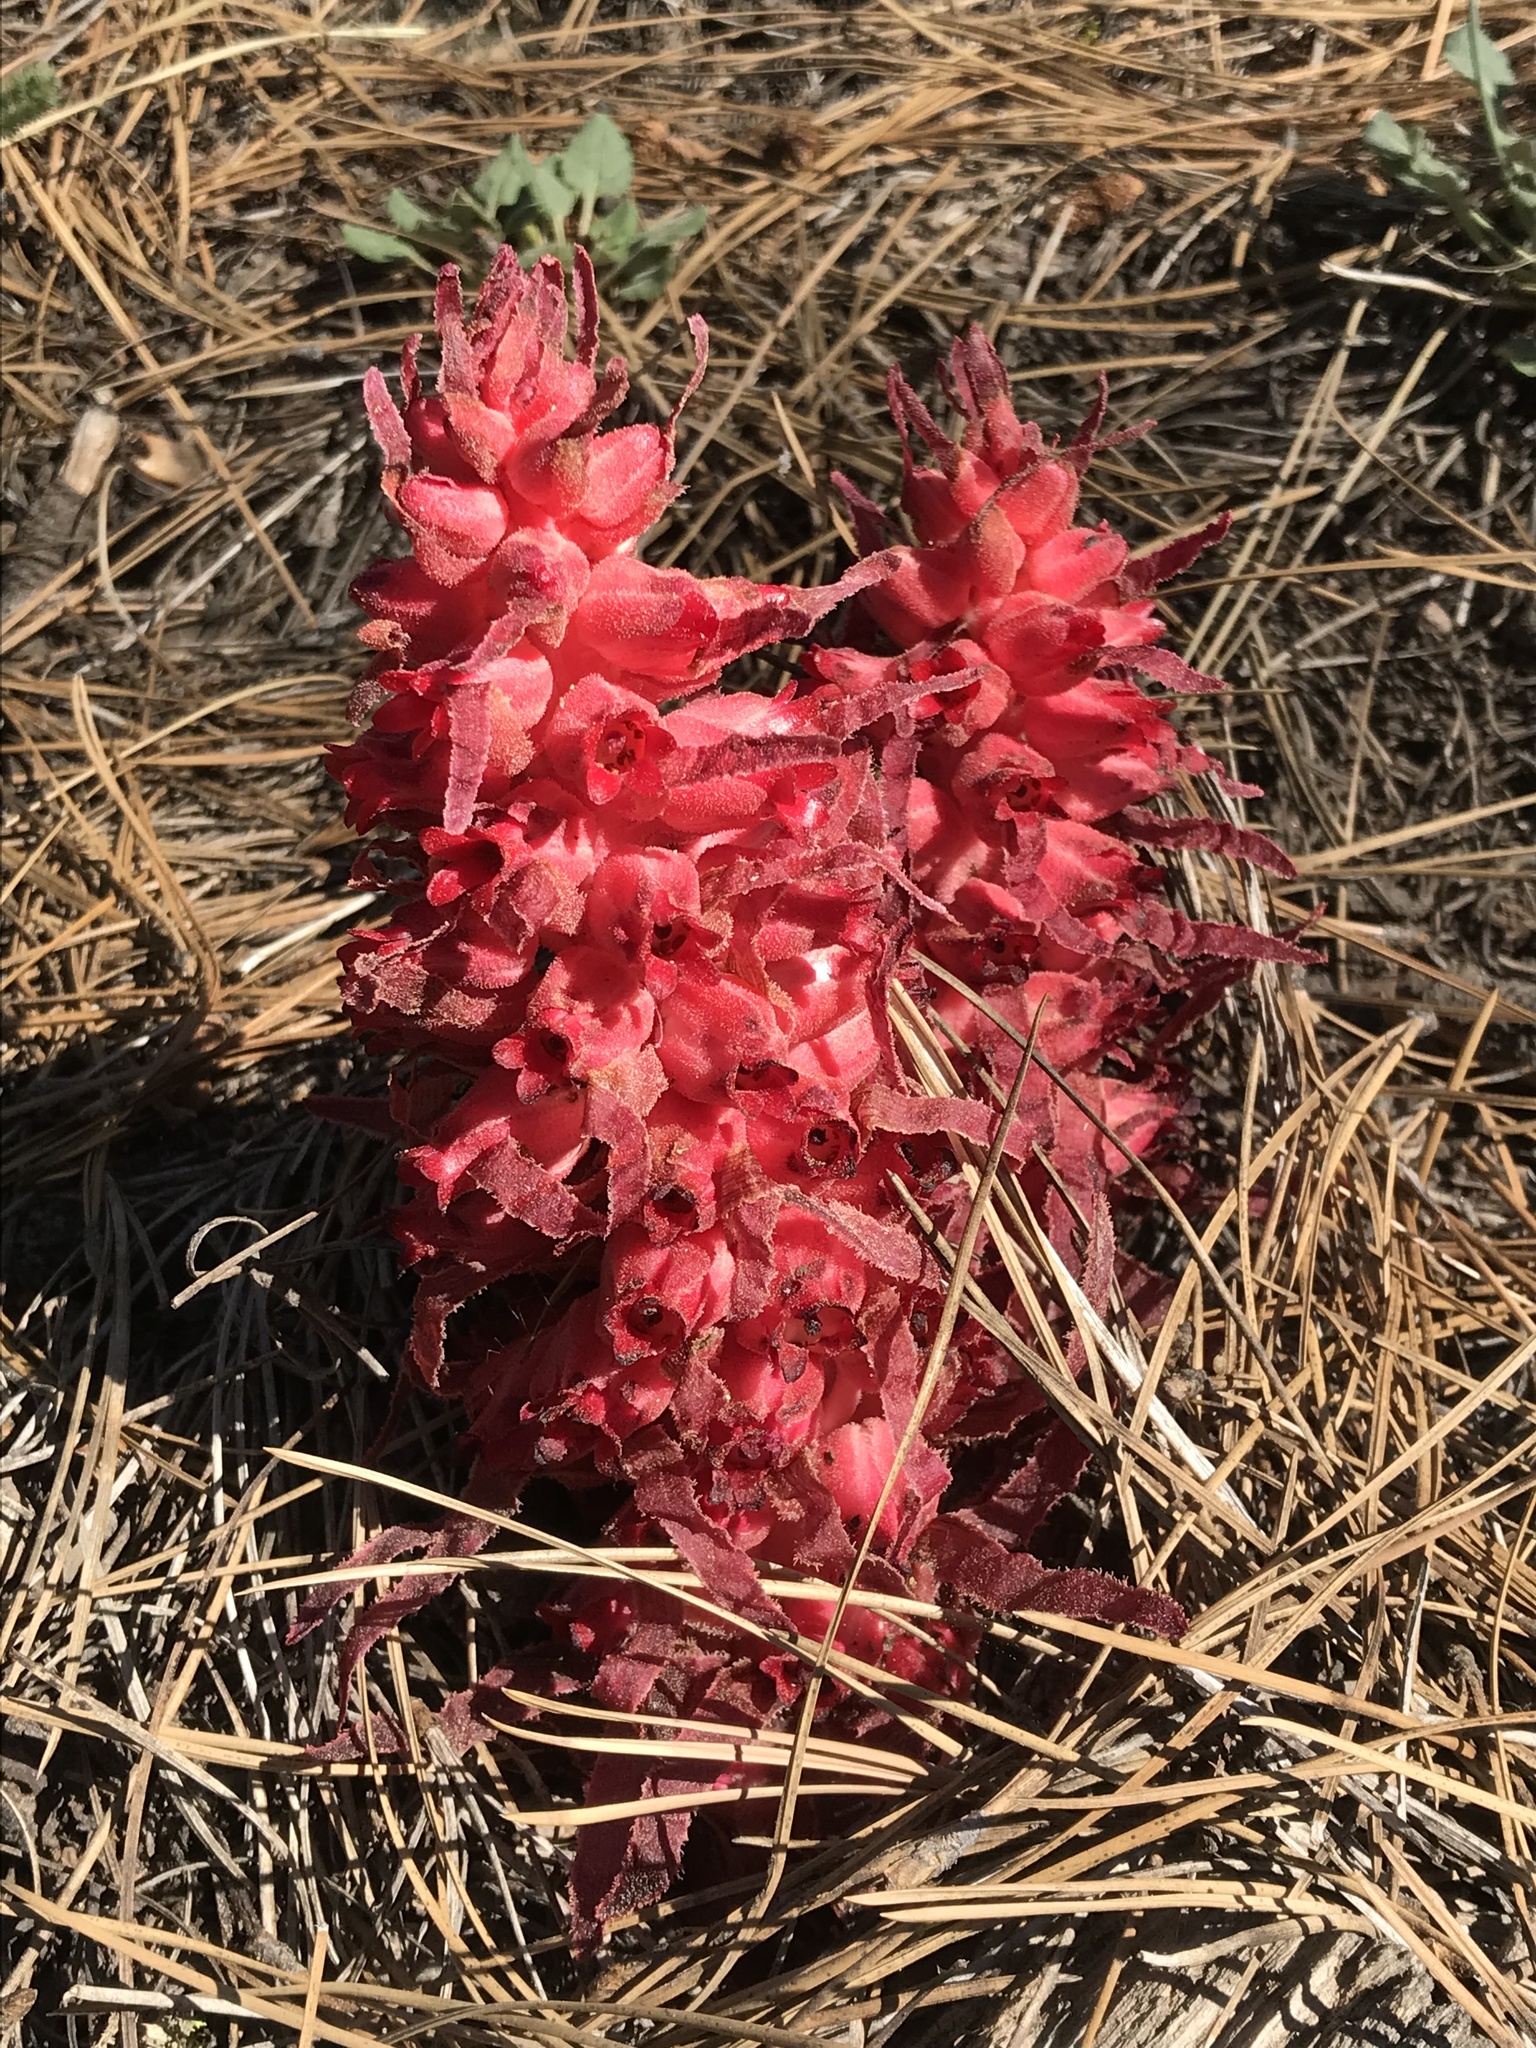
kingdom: Plantae
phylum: Tracheophyta
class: Magnoliopsida
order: Ericales
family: Ericaceae
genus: Sarcodes
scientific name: Sarcodes sanguinea
